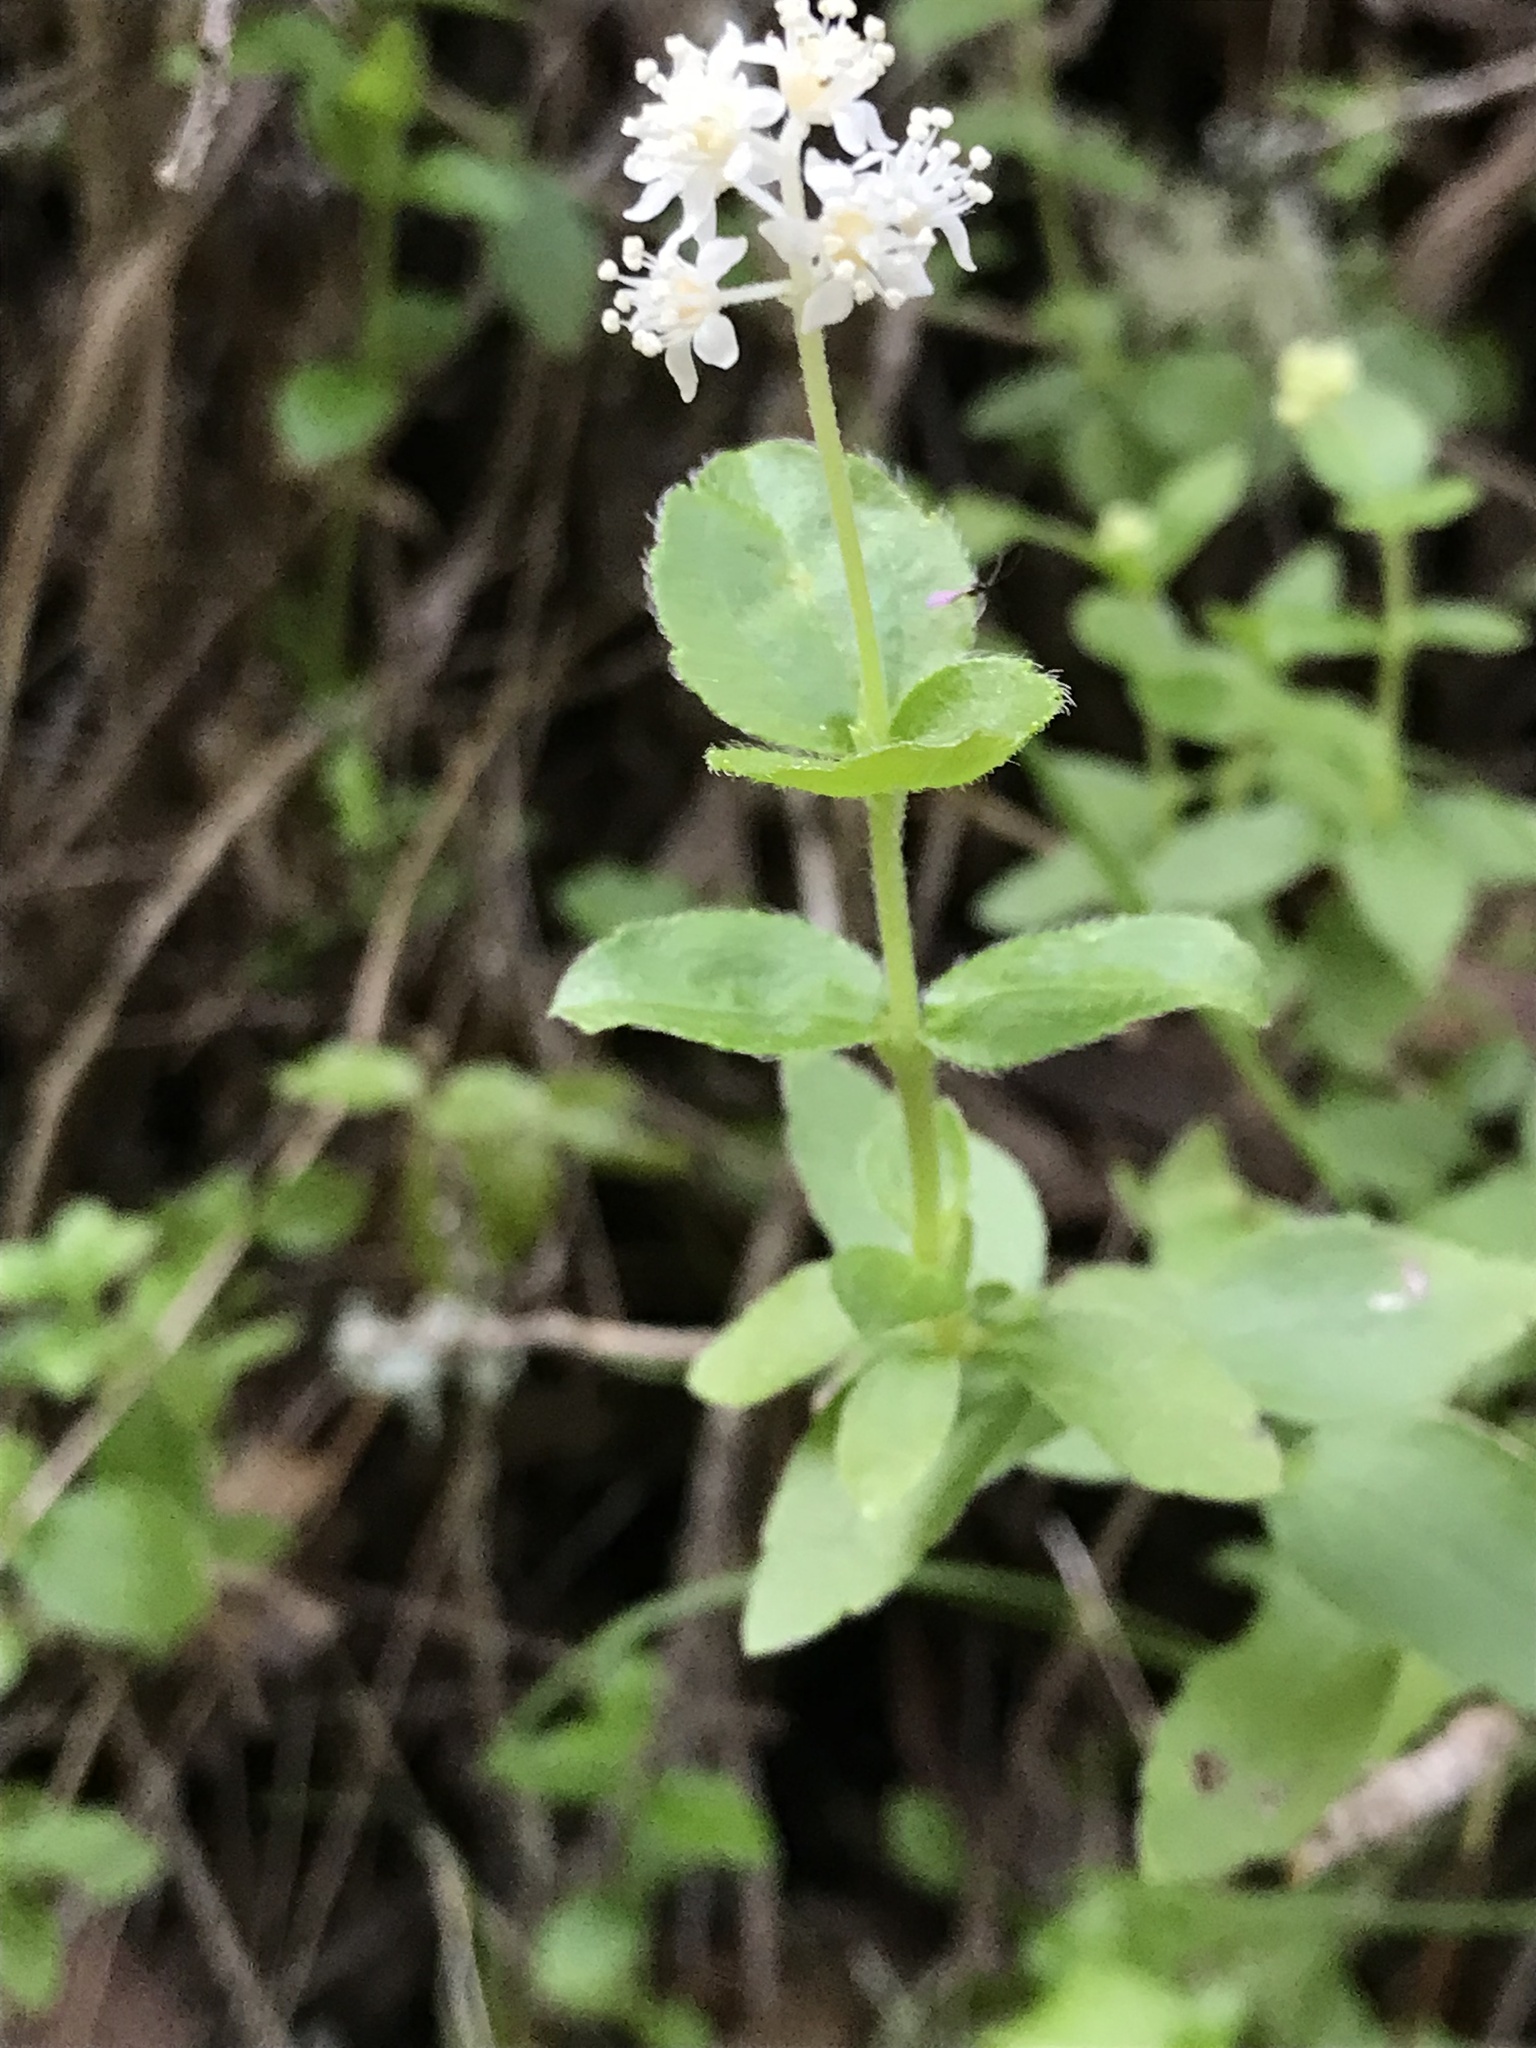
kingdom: Plantae
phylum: Tracheophyta
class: Magnoliopsida
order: Cornales
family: Hydrangeaceae
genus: Whipplea
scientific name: Whipplea modesta
